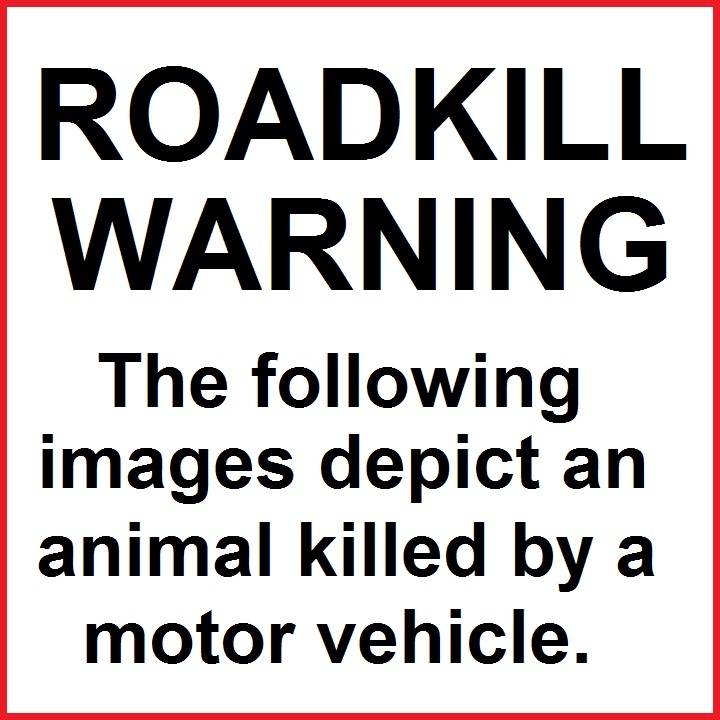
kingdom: Animalia
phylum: Chordata
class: Mammalia
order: Carnivora
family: Procyonidae
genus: Procyon
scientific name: Procyon lotor
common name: Raccoon
